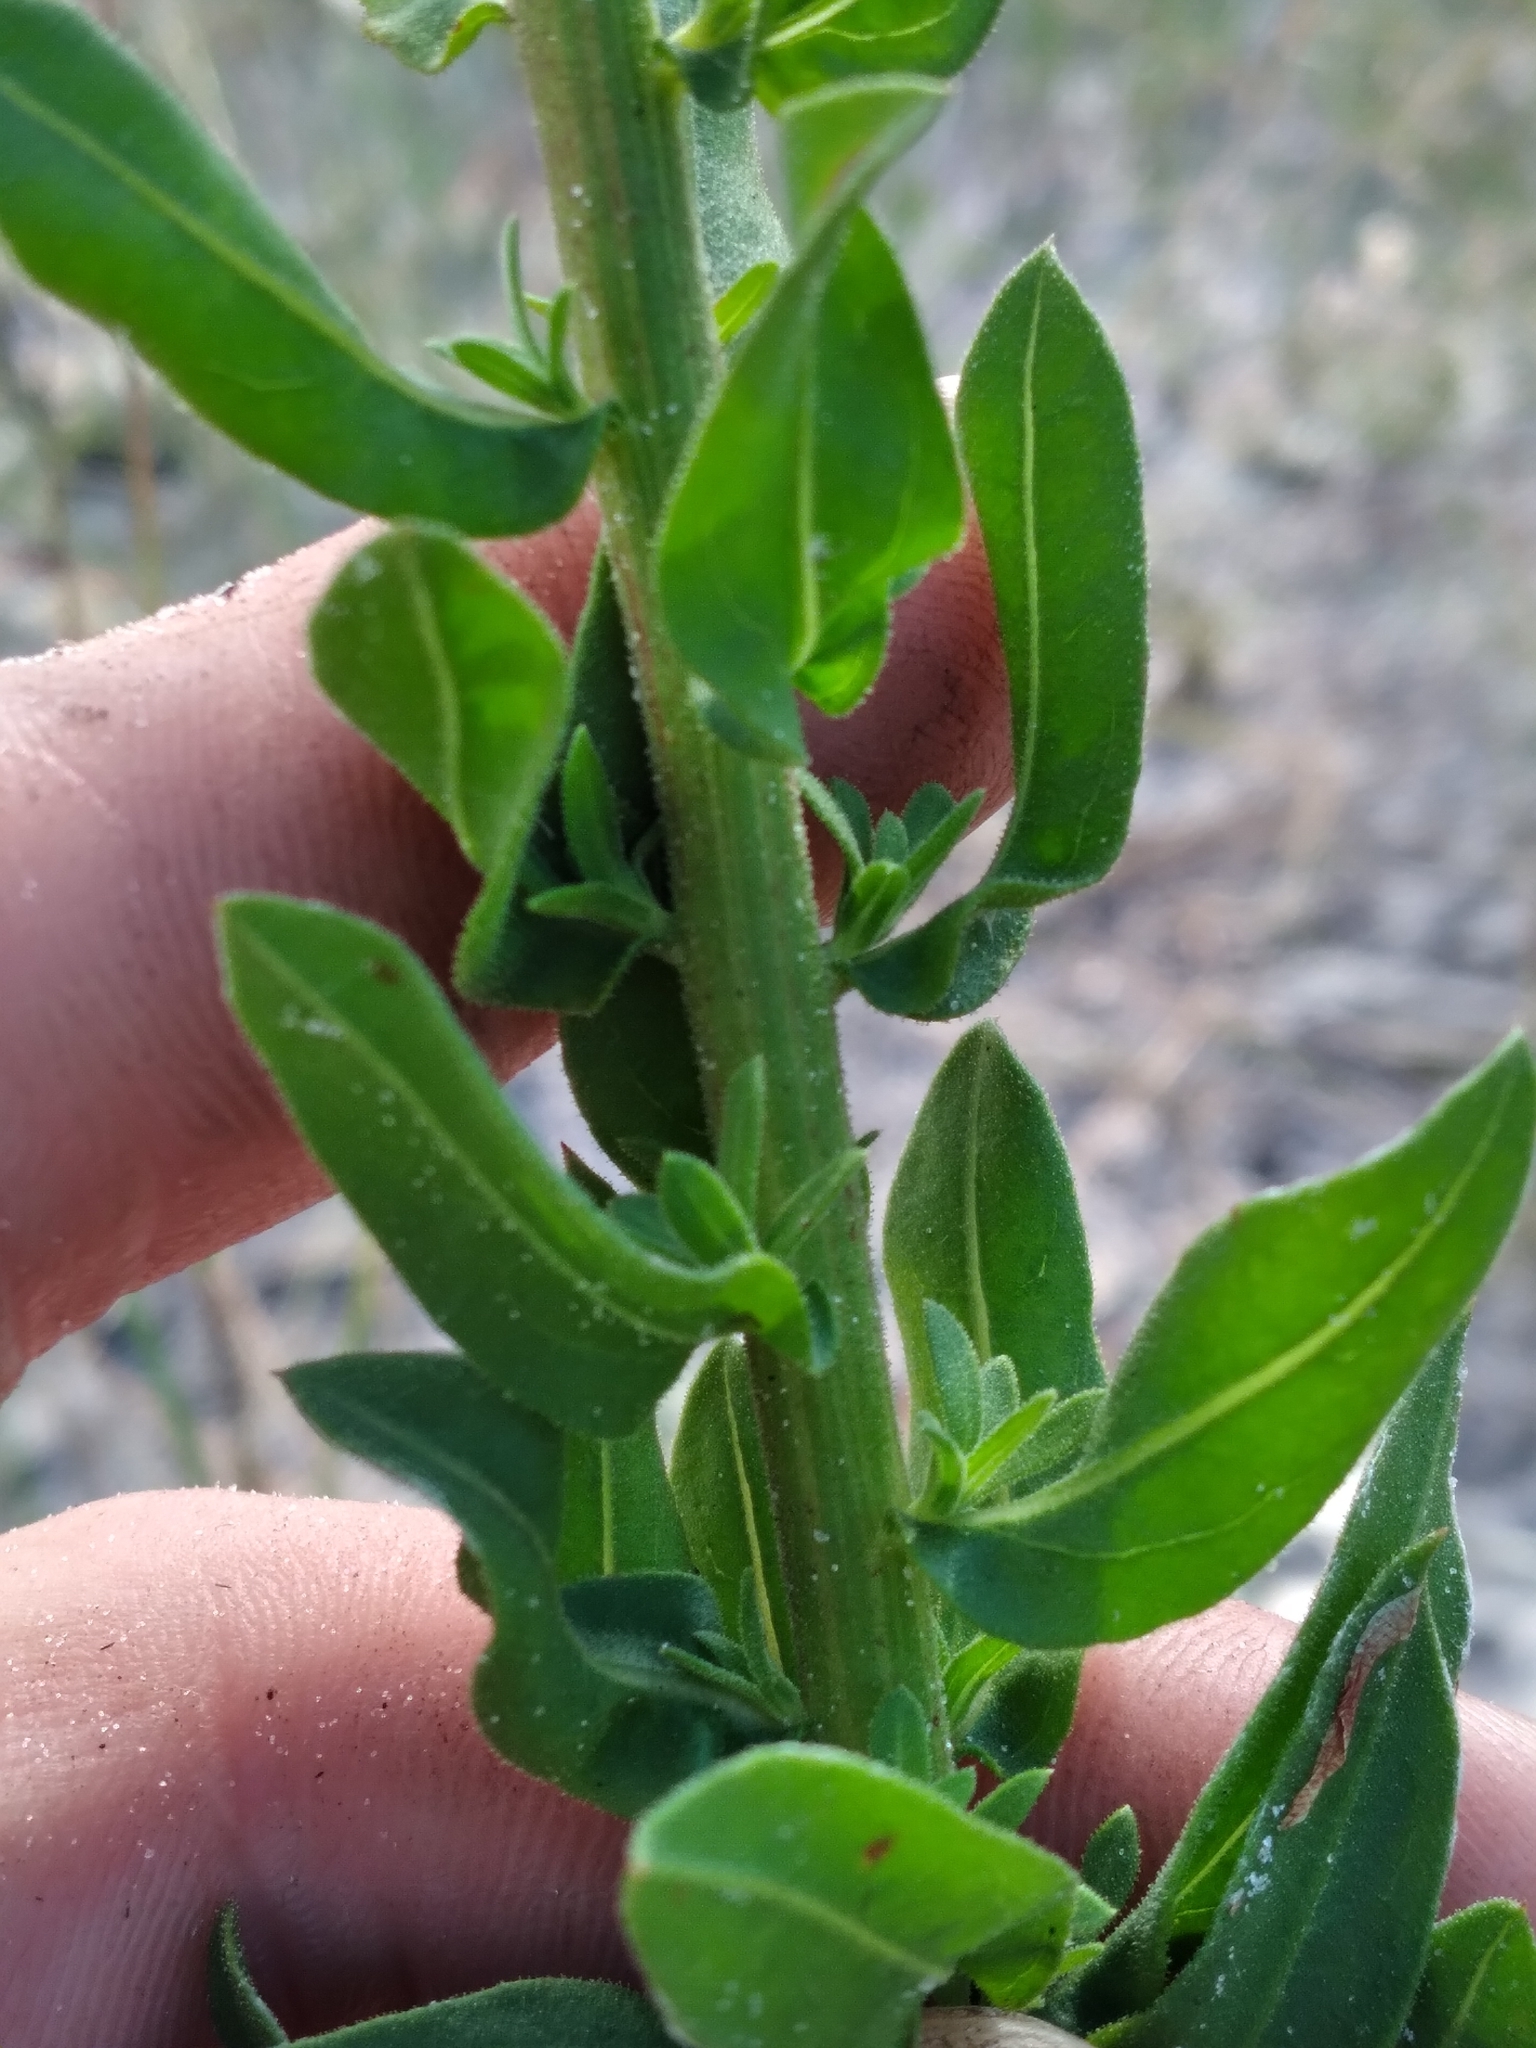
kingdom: Plantae
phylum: Tracheophyta
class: Magnoliopsida
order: Asterales
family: Asteraceae
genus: Chrysopsis
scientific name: Chrysopsis scabrella
